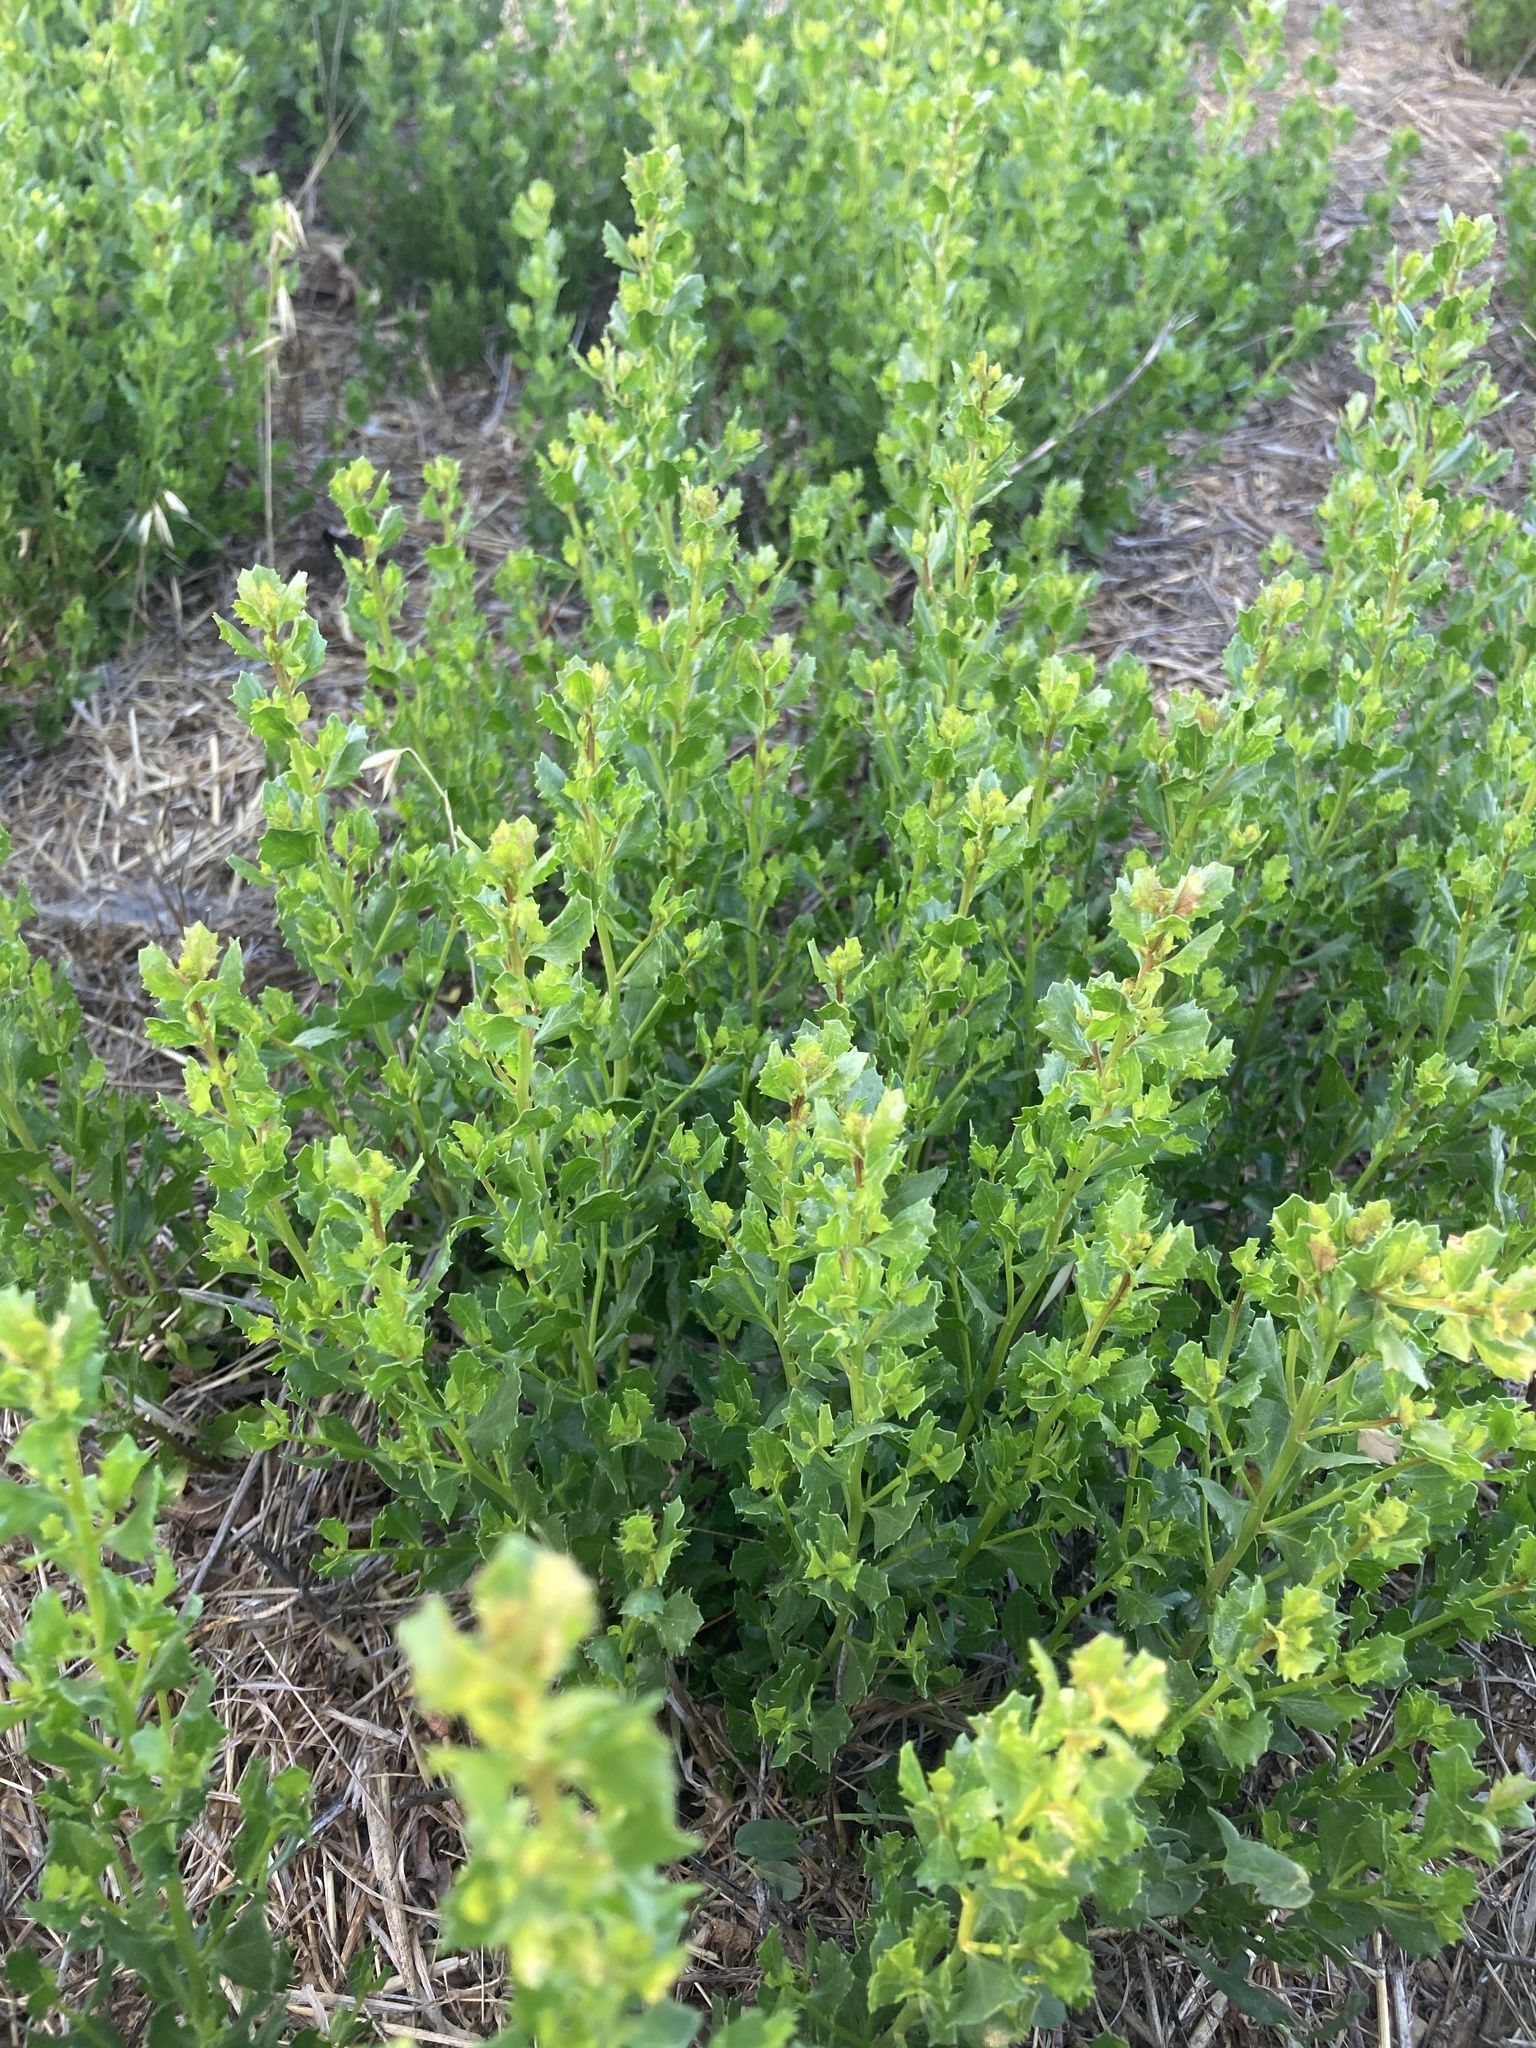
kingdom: Plantae
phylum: Tracheophyta
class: Magnoliopsida
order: Asterales
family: Asteraceae
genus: Baccharis
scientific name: Baccharis pilularis
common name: Coyotebrush
